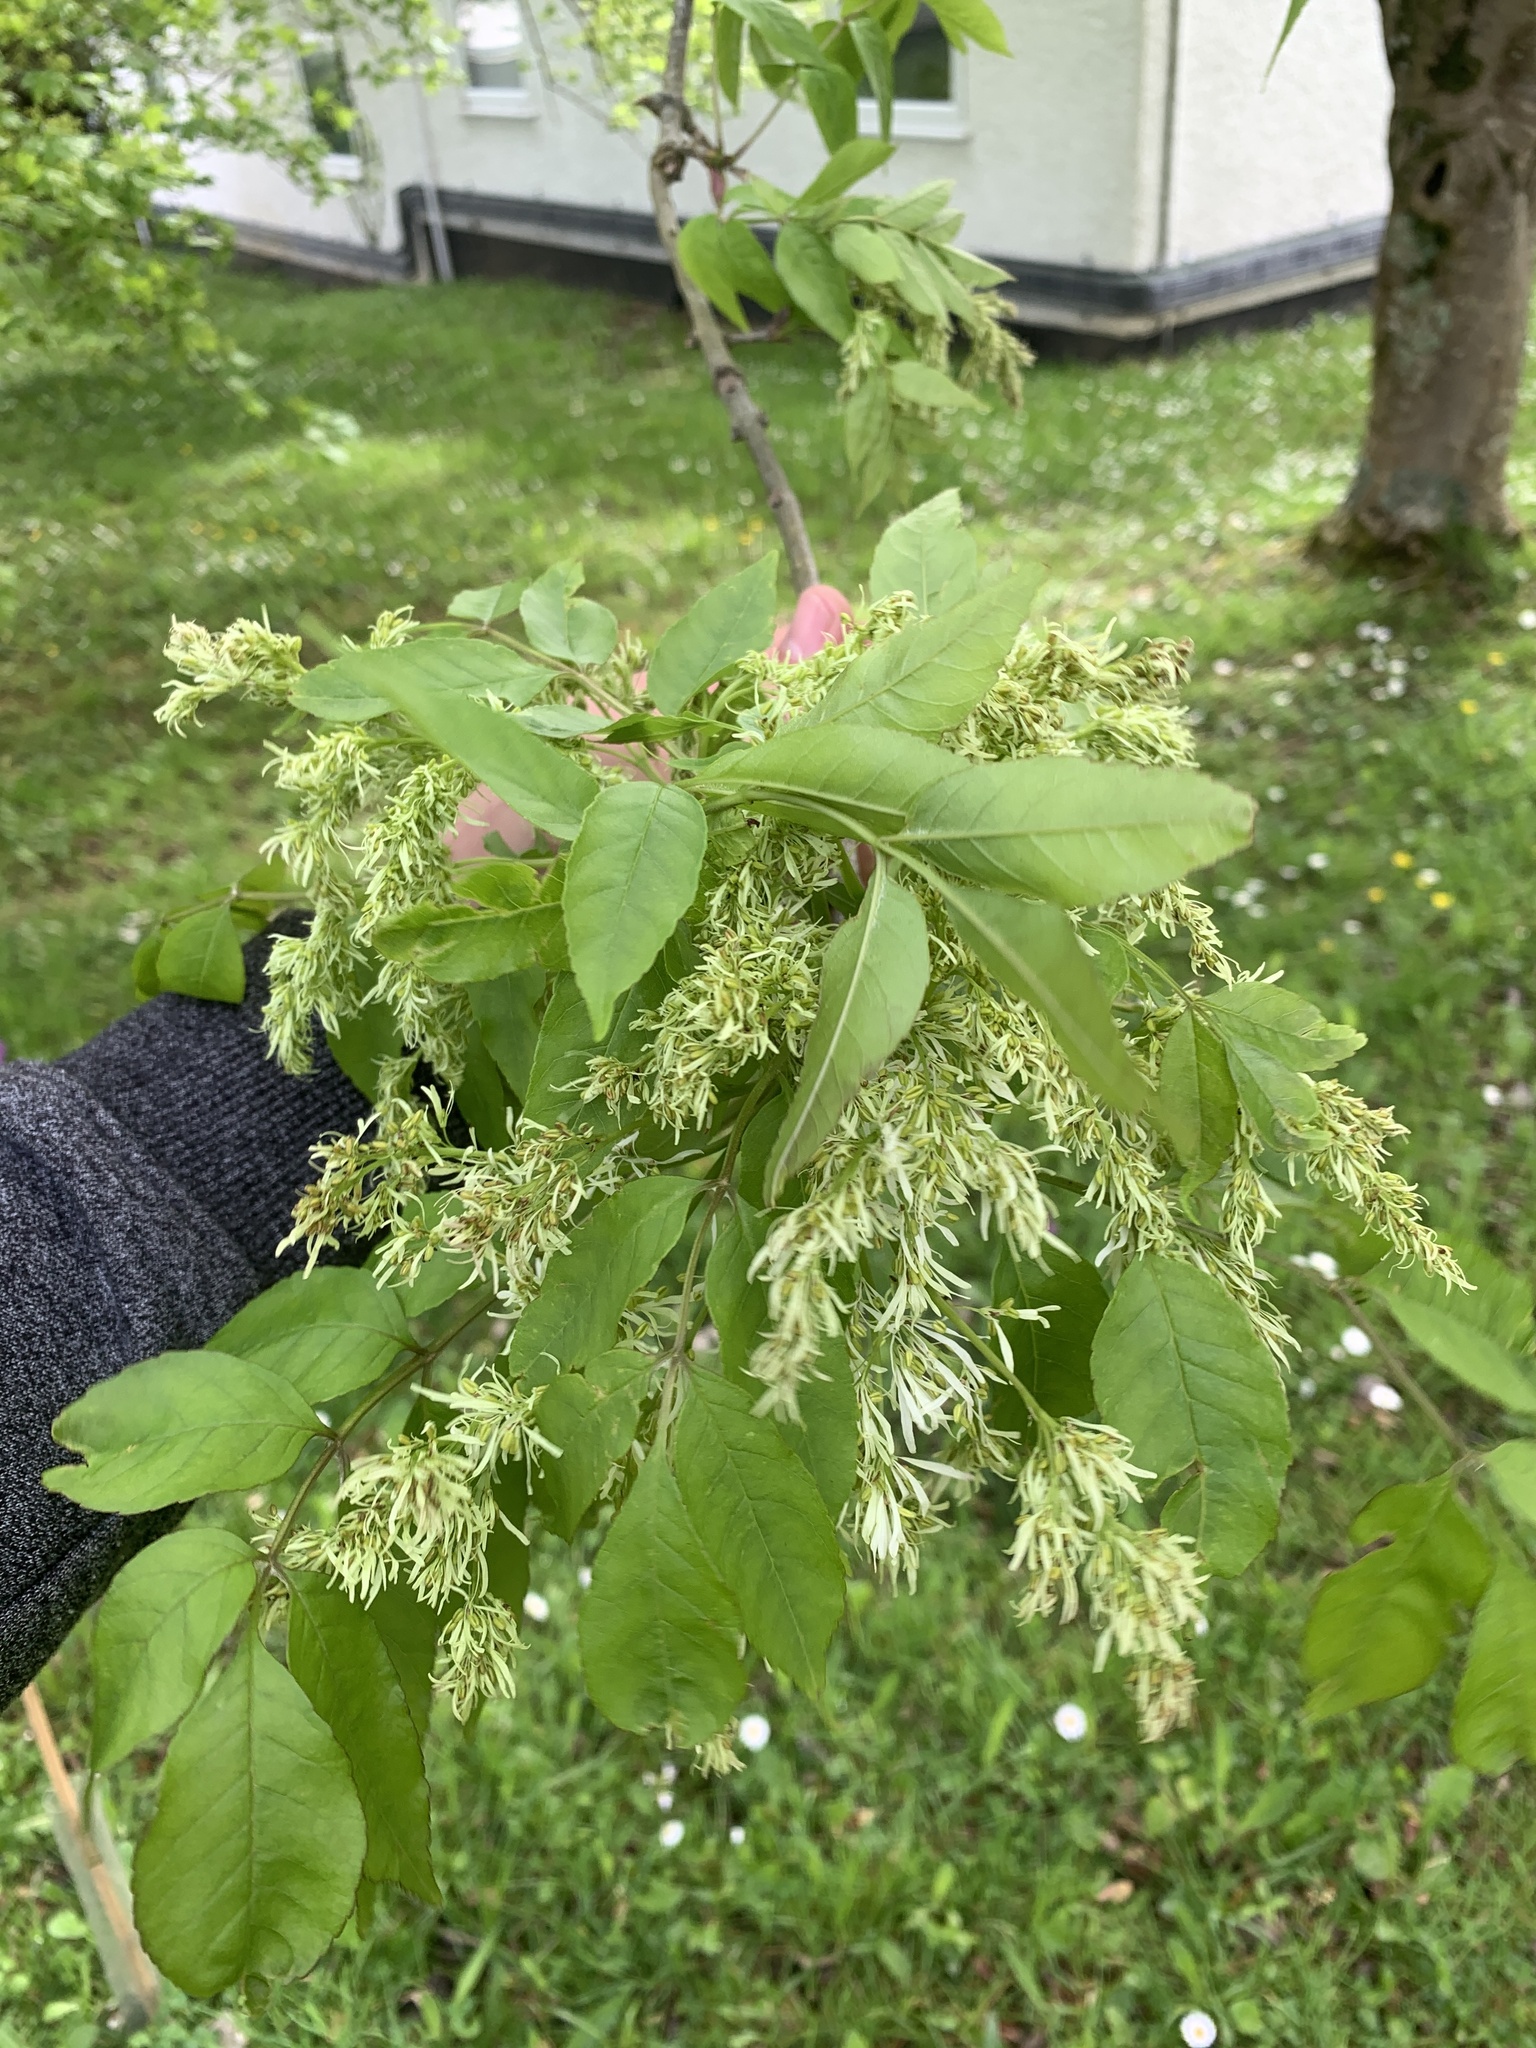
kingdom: Plantae
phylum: Tracheophyta
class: Magnoliopsida
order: Lamiales
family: Oleaceae
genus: Fraxinus
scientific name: Fraxinus ornus
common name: Manna ash
